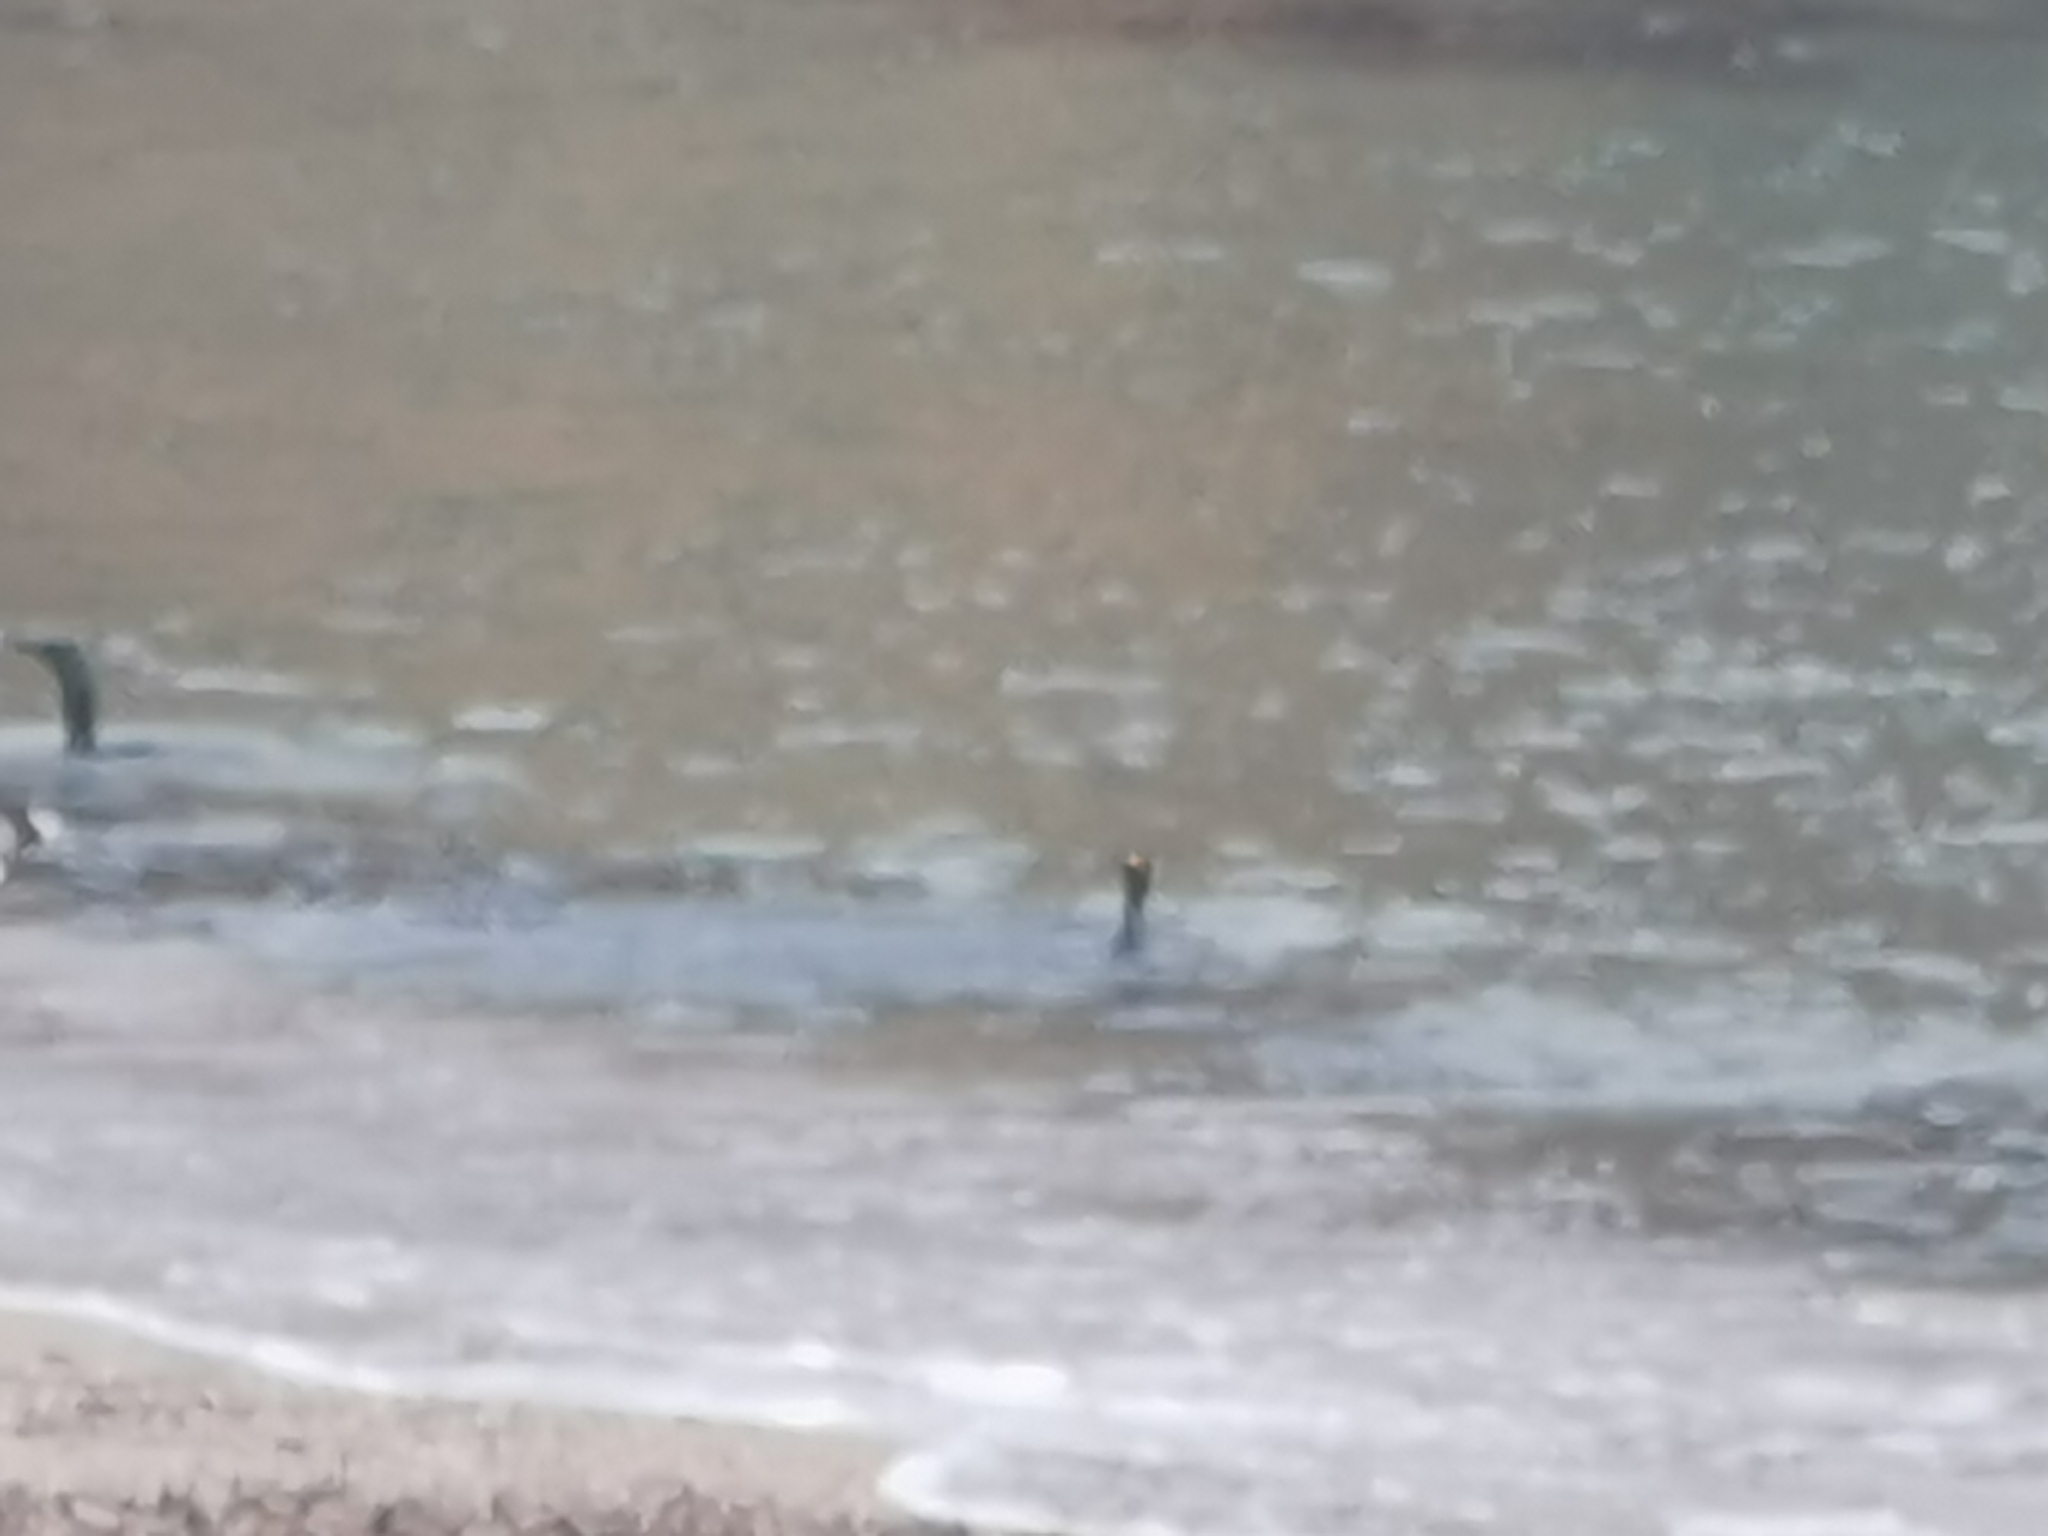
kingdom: Animalia
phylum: Chordata
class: Aves
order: Suliformes
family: Phalacrocoracidae
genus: Phalacrocorax
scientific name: Phalacrocorax carbo
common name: Great cormorant
